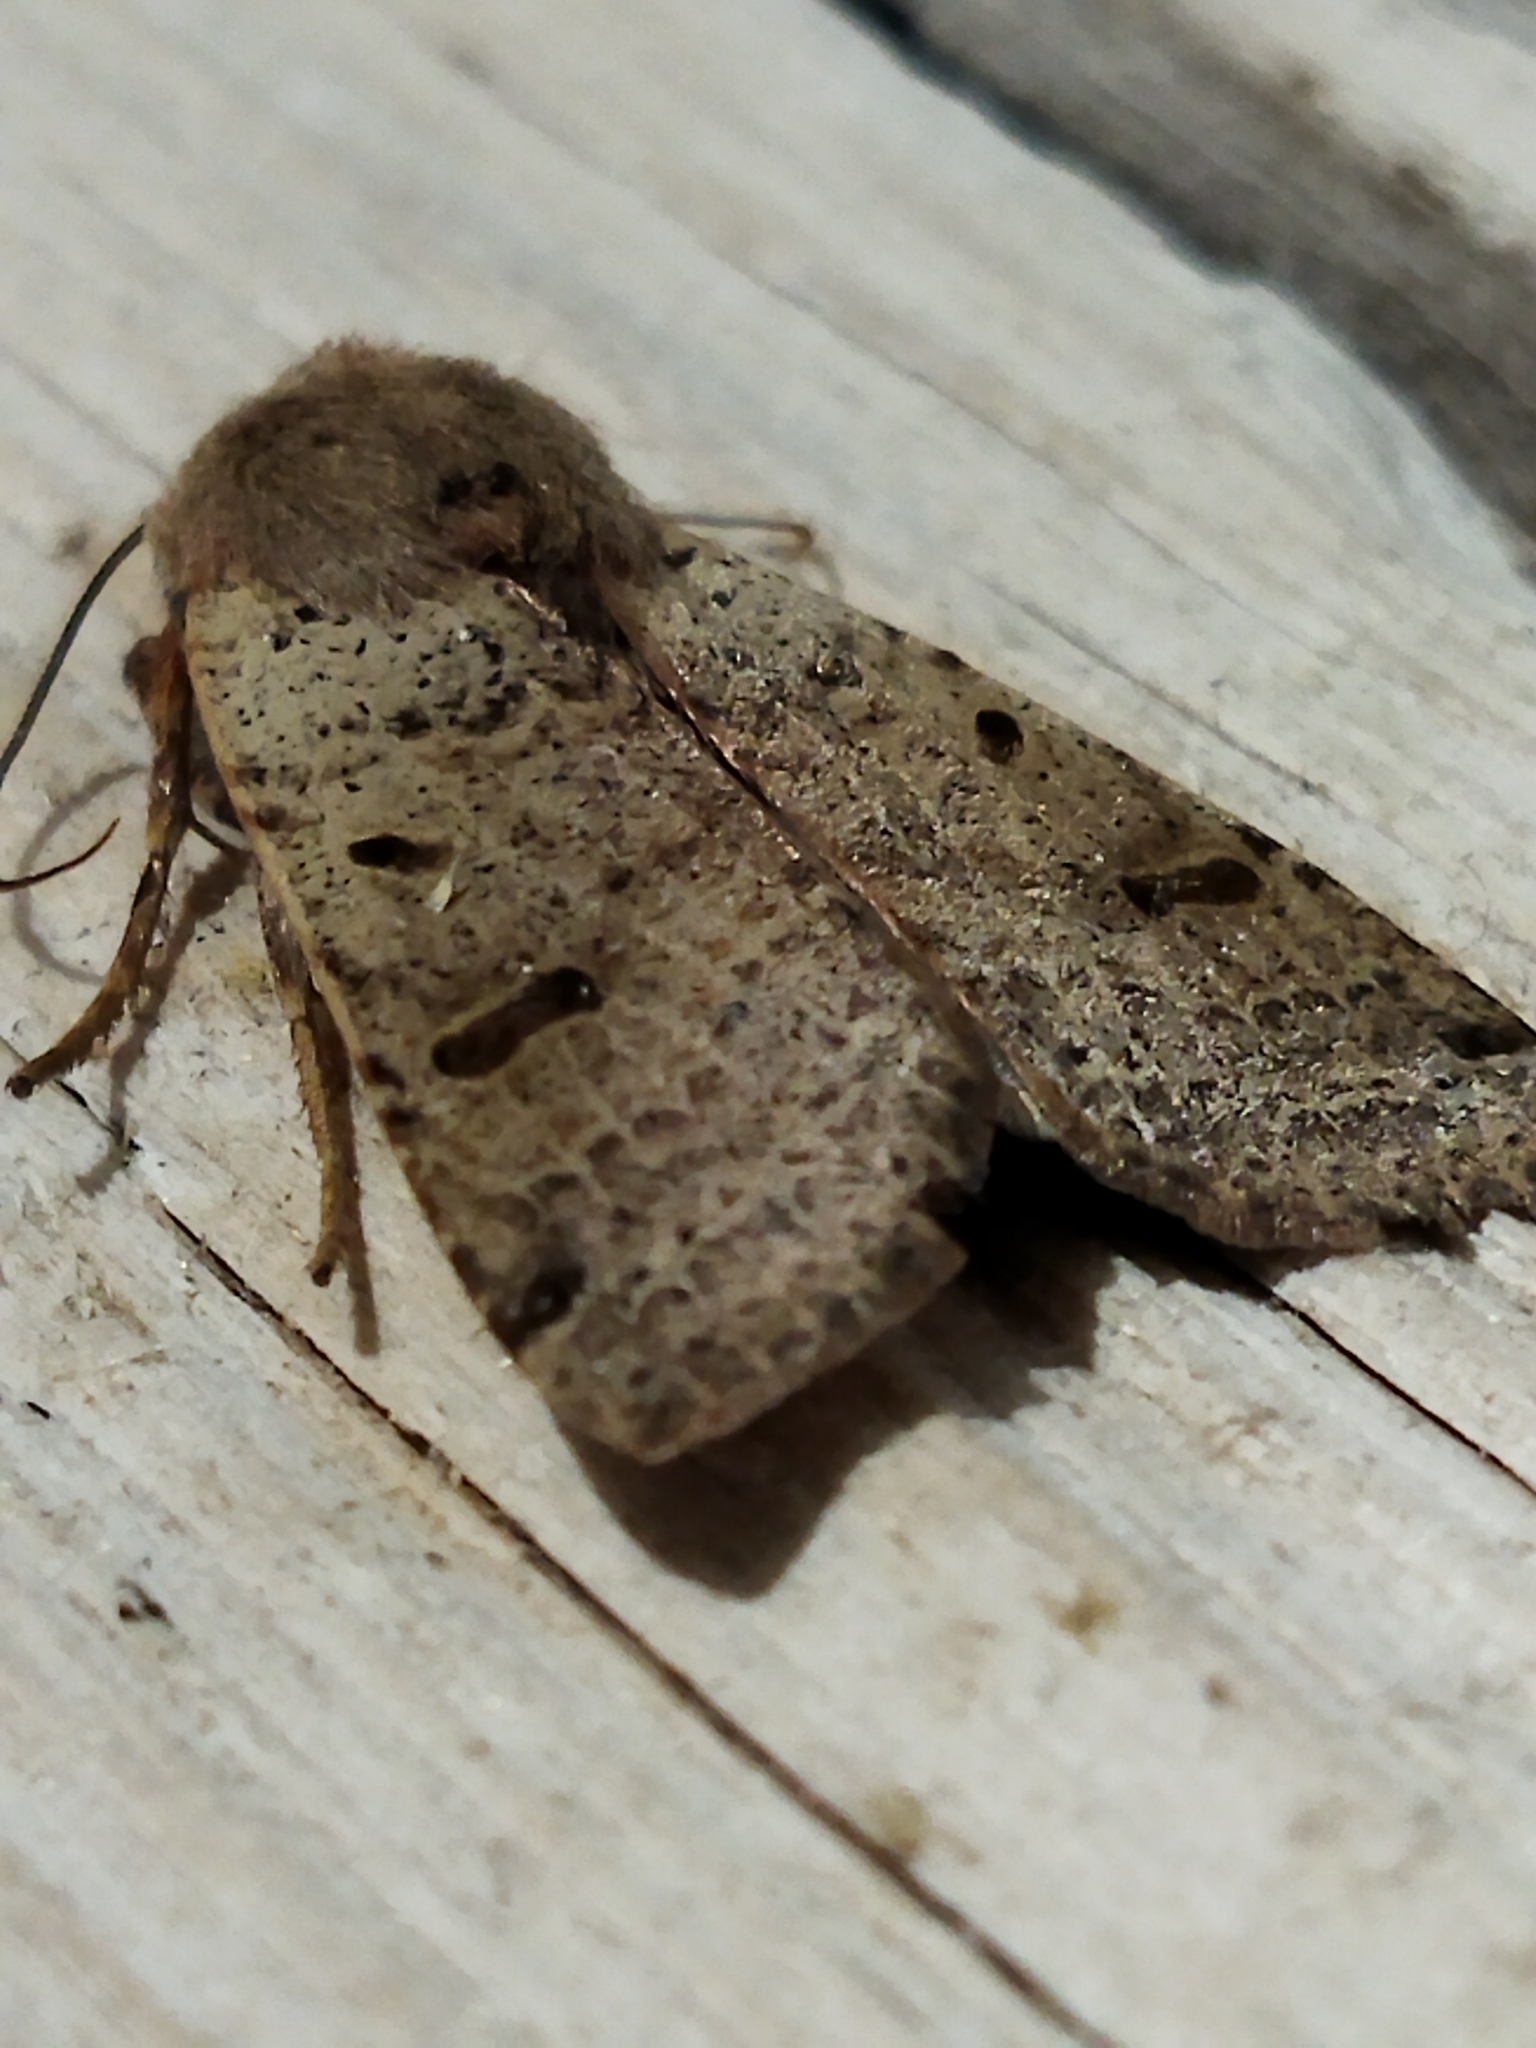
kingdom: Animalia
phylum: Arthropoda
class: Insecta
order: Lepidoptera
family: Noctuidae
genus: Agrochola
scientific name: Agrochola lychnidis
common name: Beaded chestnut
